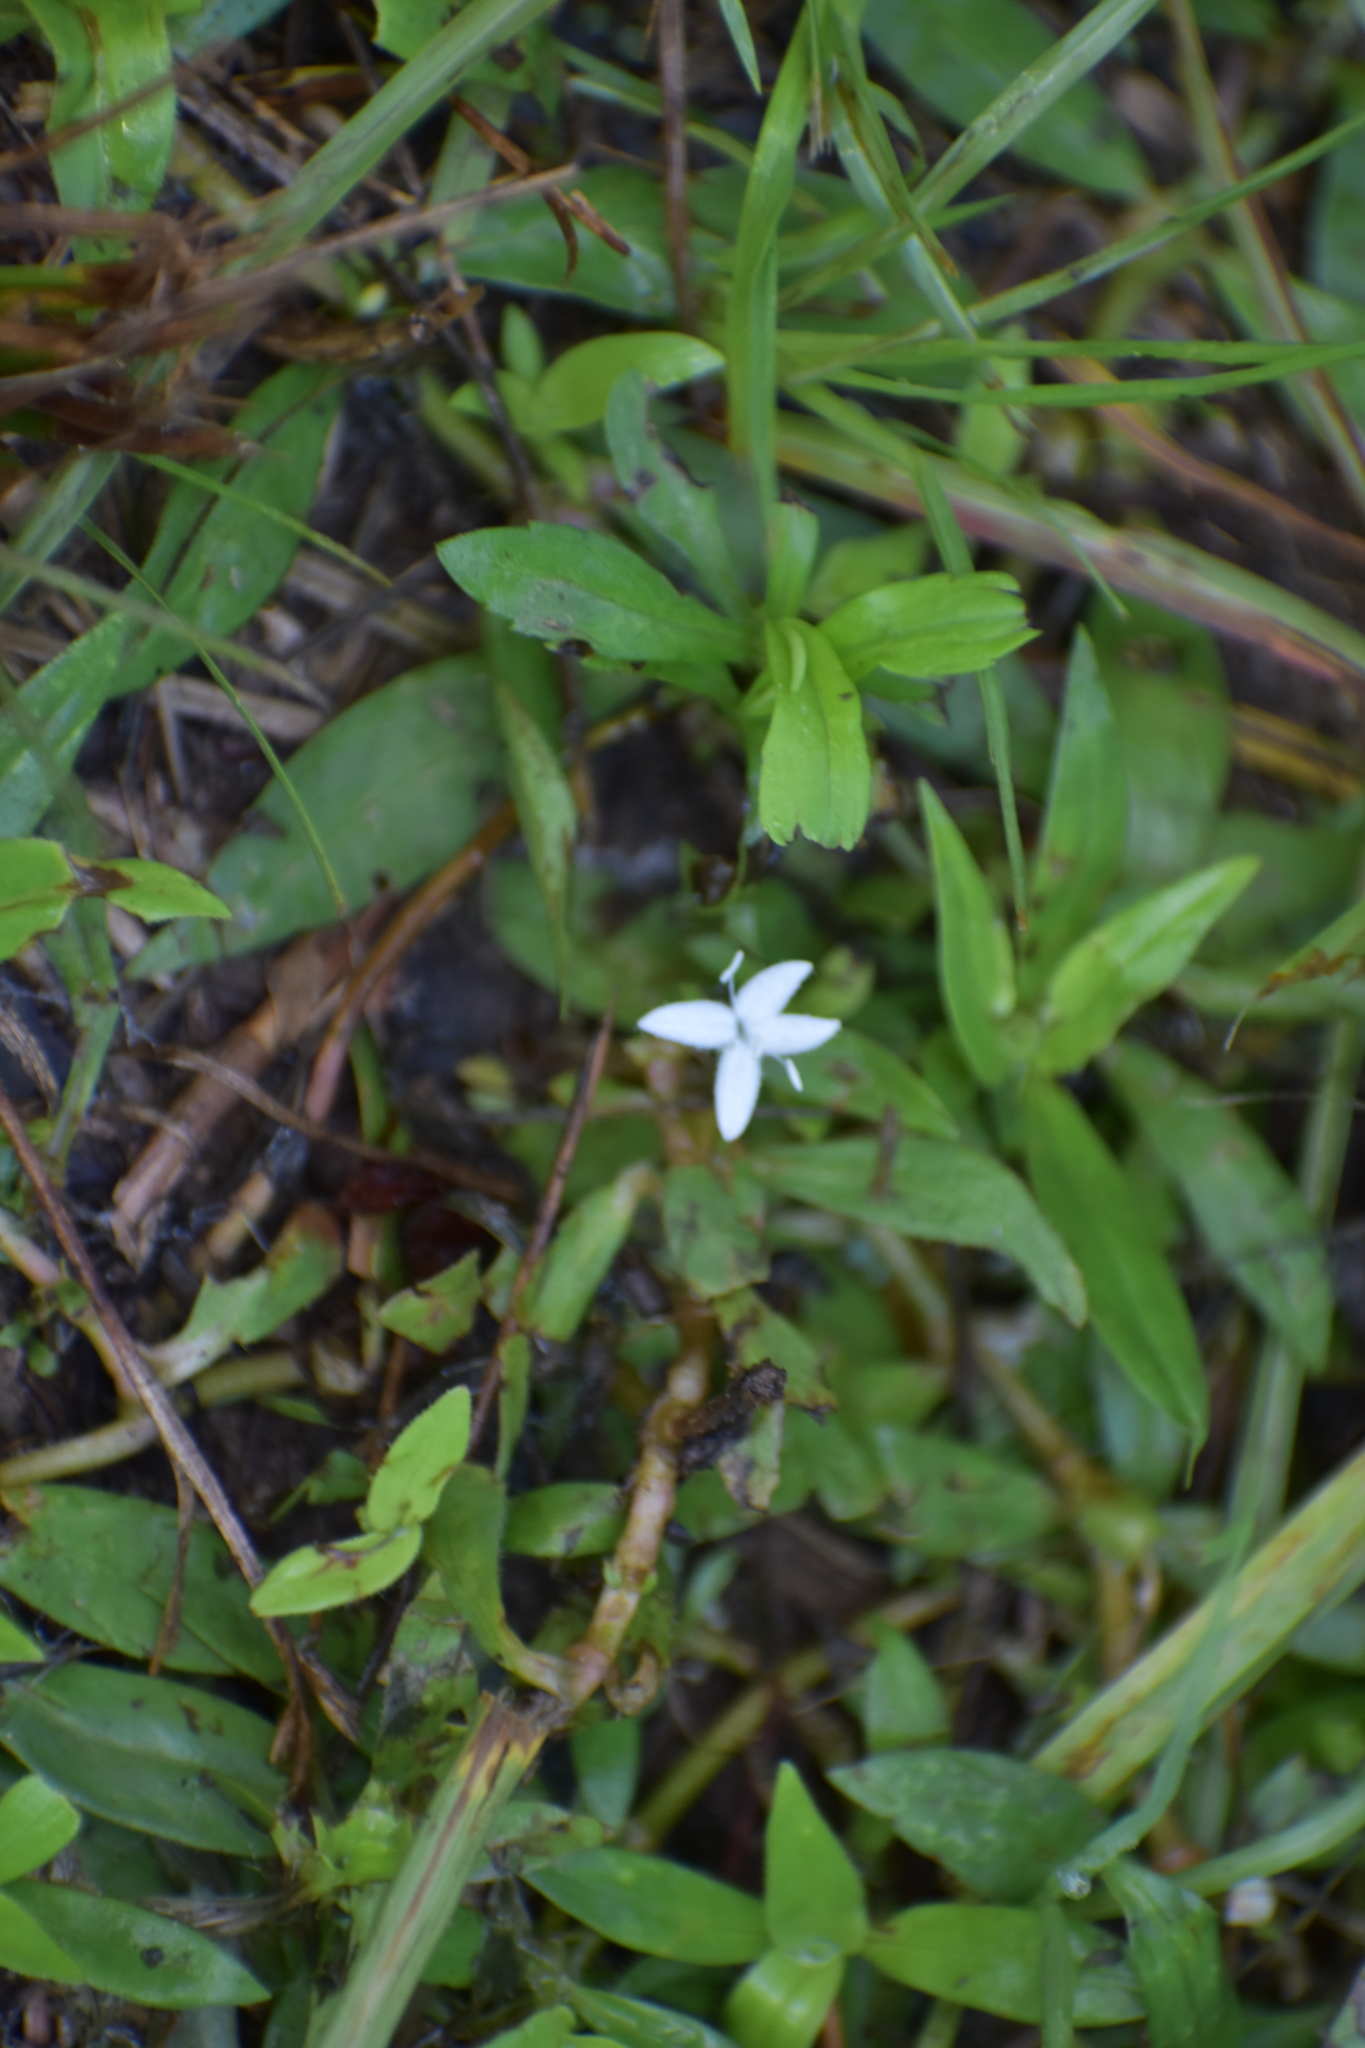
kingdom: Plantae
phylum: Tracheophyta
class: Magnoliopsida
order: Gentianales
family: Rubiaceae
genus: Diodia
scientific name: Diodia virginiana
